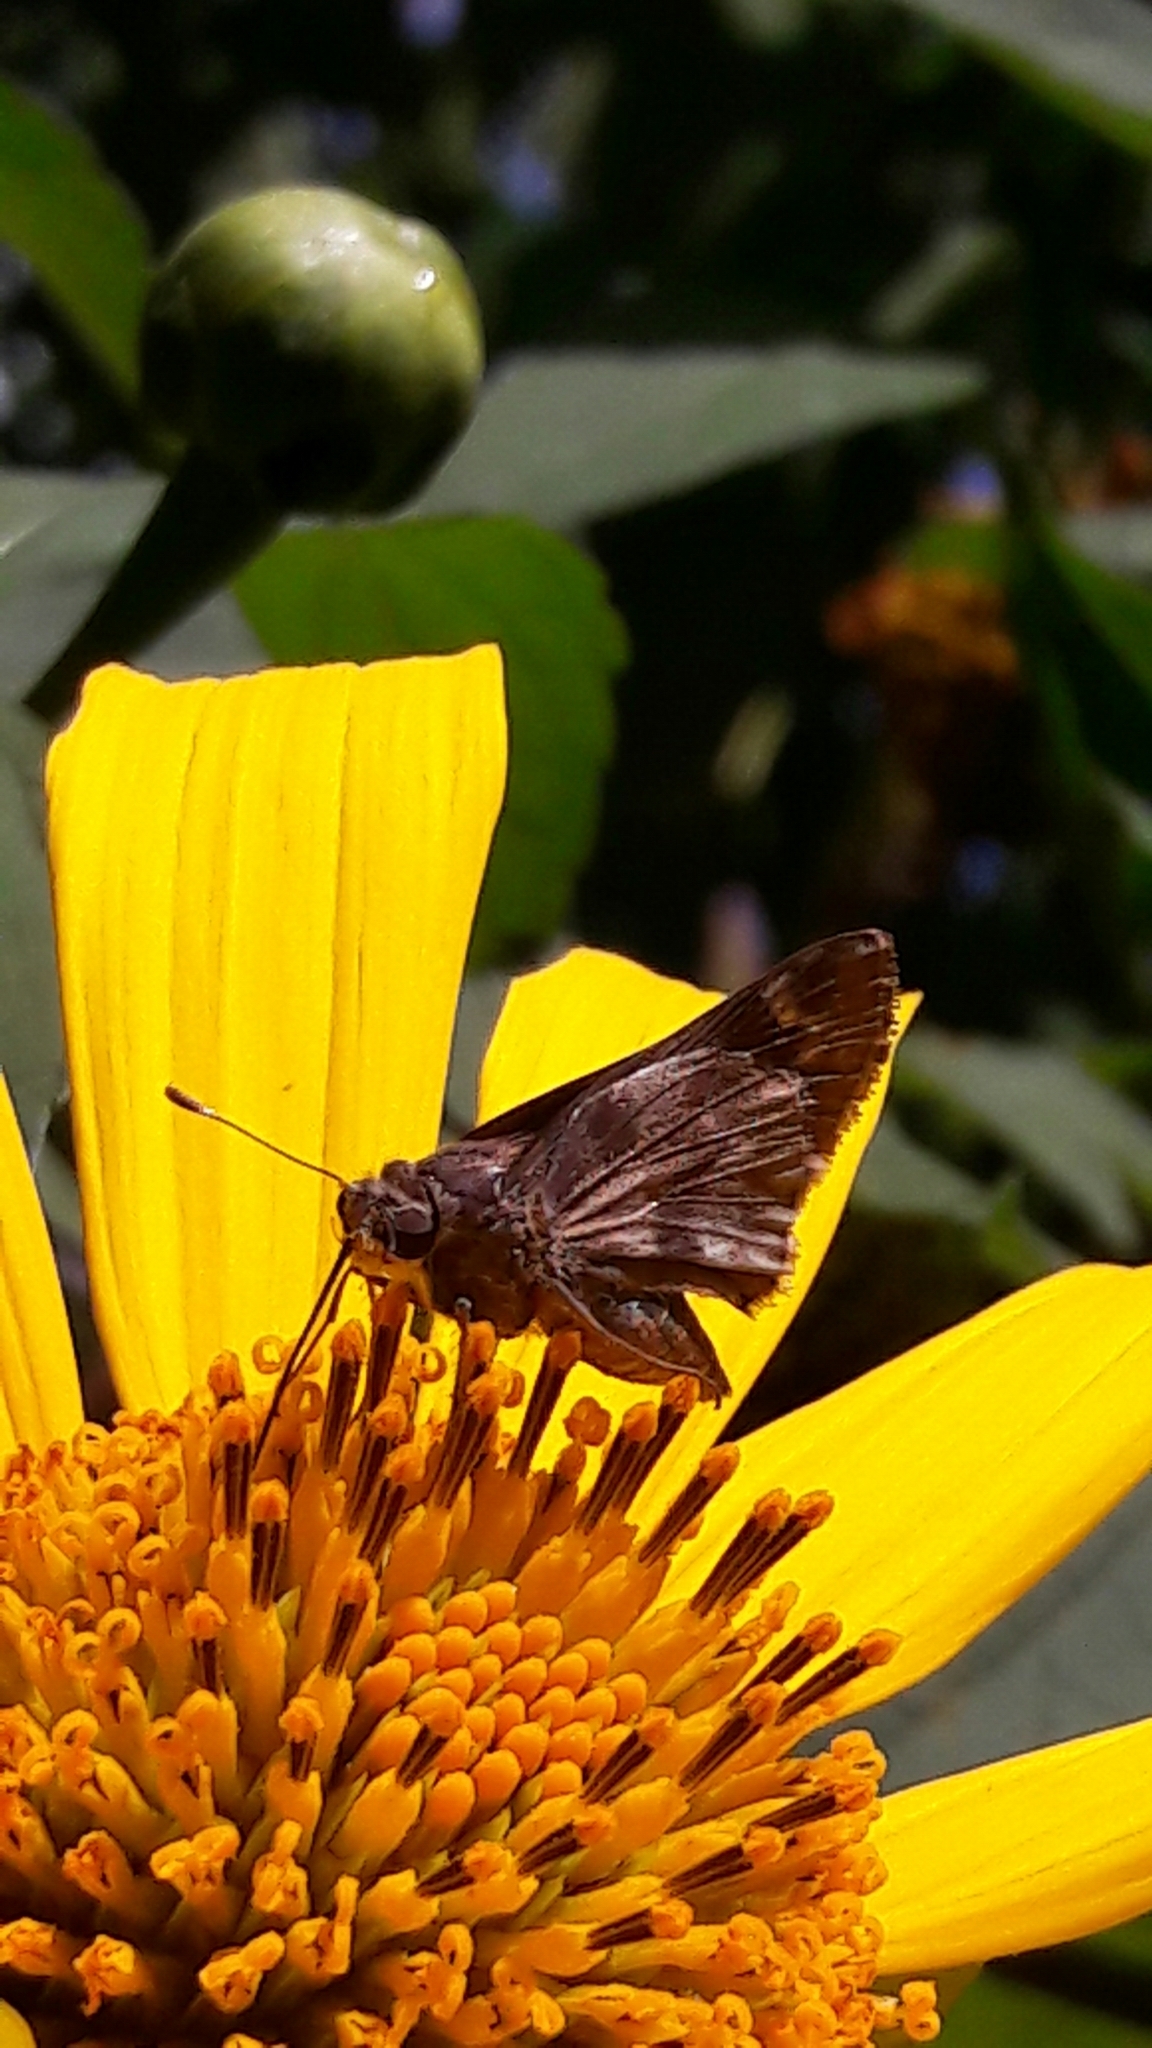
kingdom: Animalia
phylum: Arthropoda
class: Insecta
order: Lepidoptera
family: Hesperiidae
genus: Pompeius
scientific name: Pompeius pompeius
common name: Pompeius skipper
